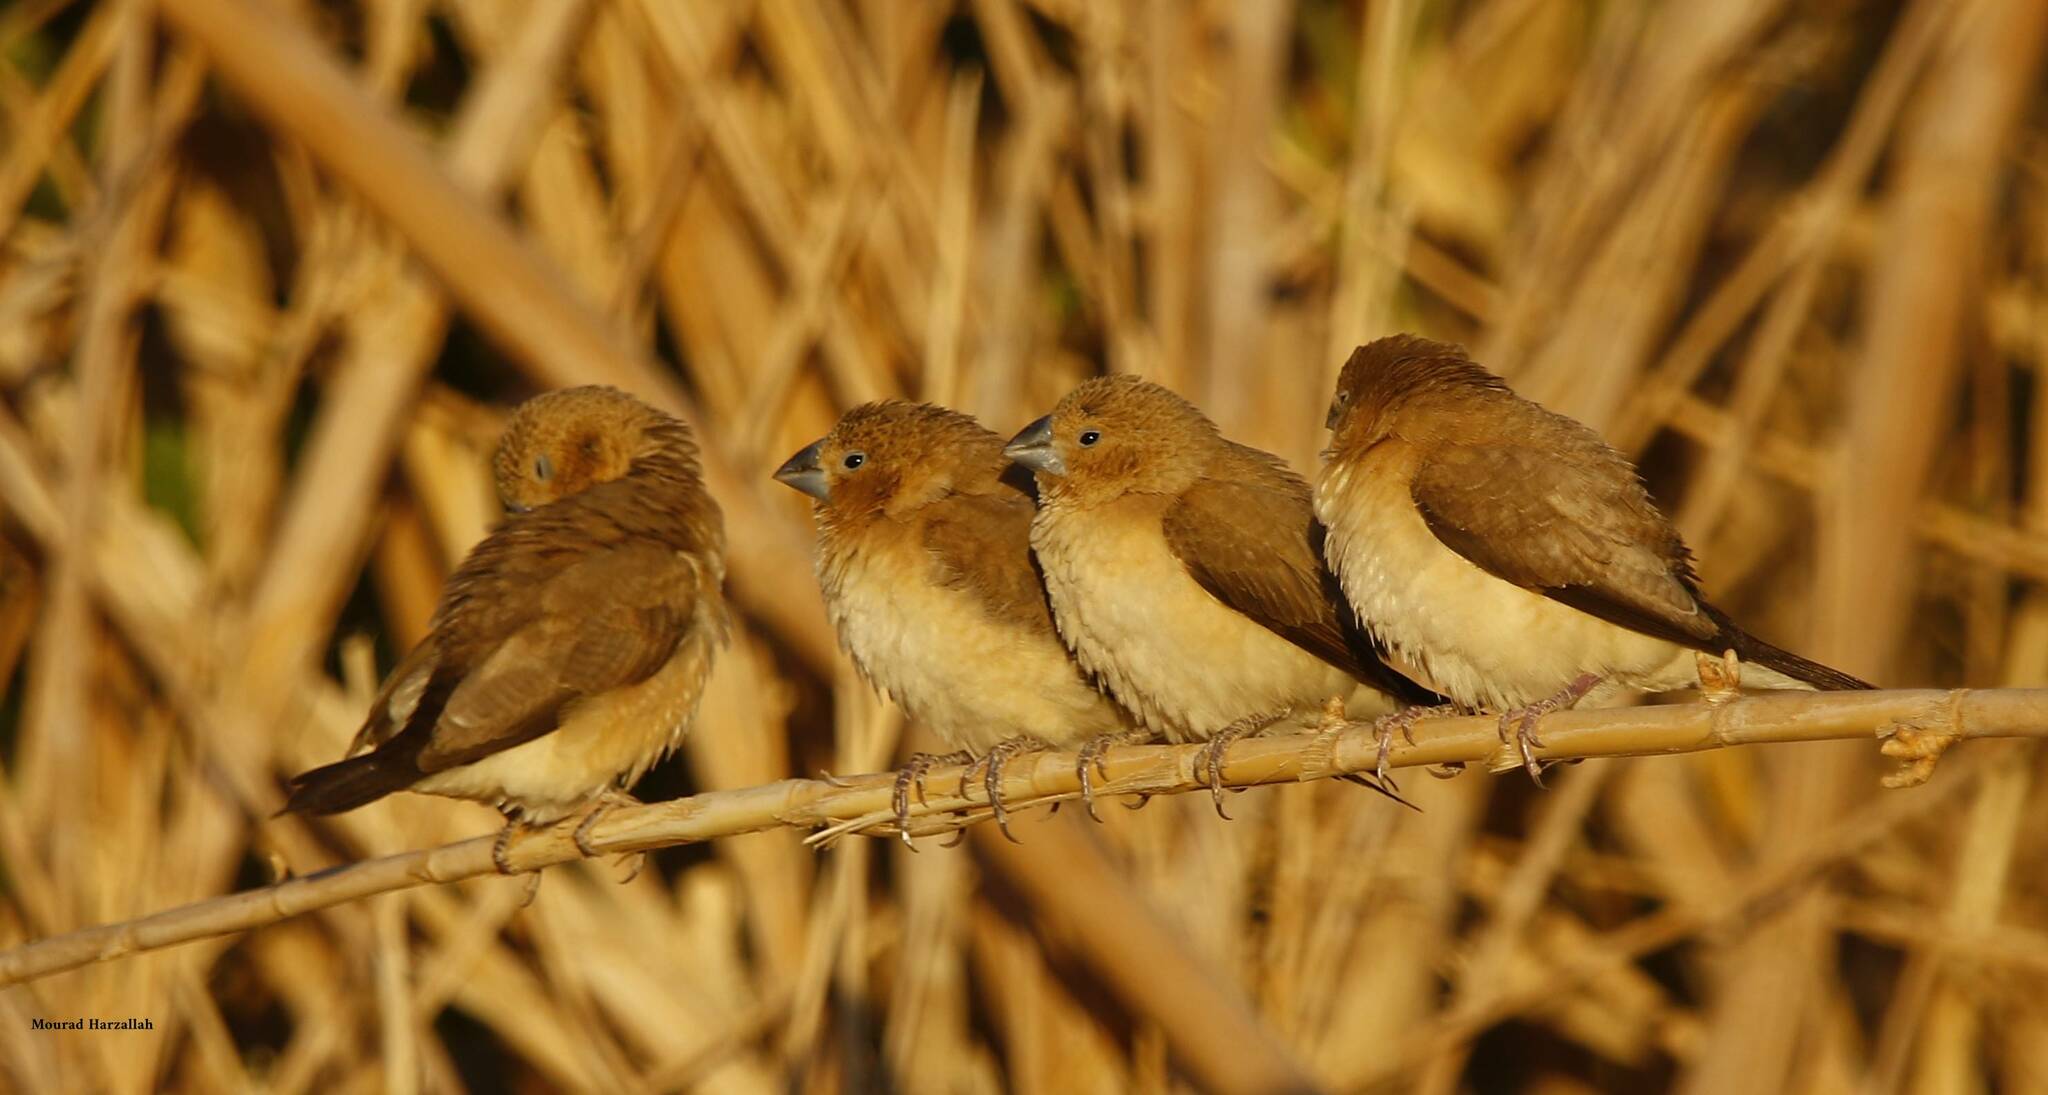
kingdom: Animalia
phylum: Chordata
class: Aves
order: Passeriformes
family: Estrildidae
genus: Euodice
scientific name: Euodice cantans
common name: African silverbill
